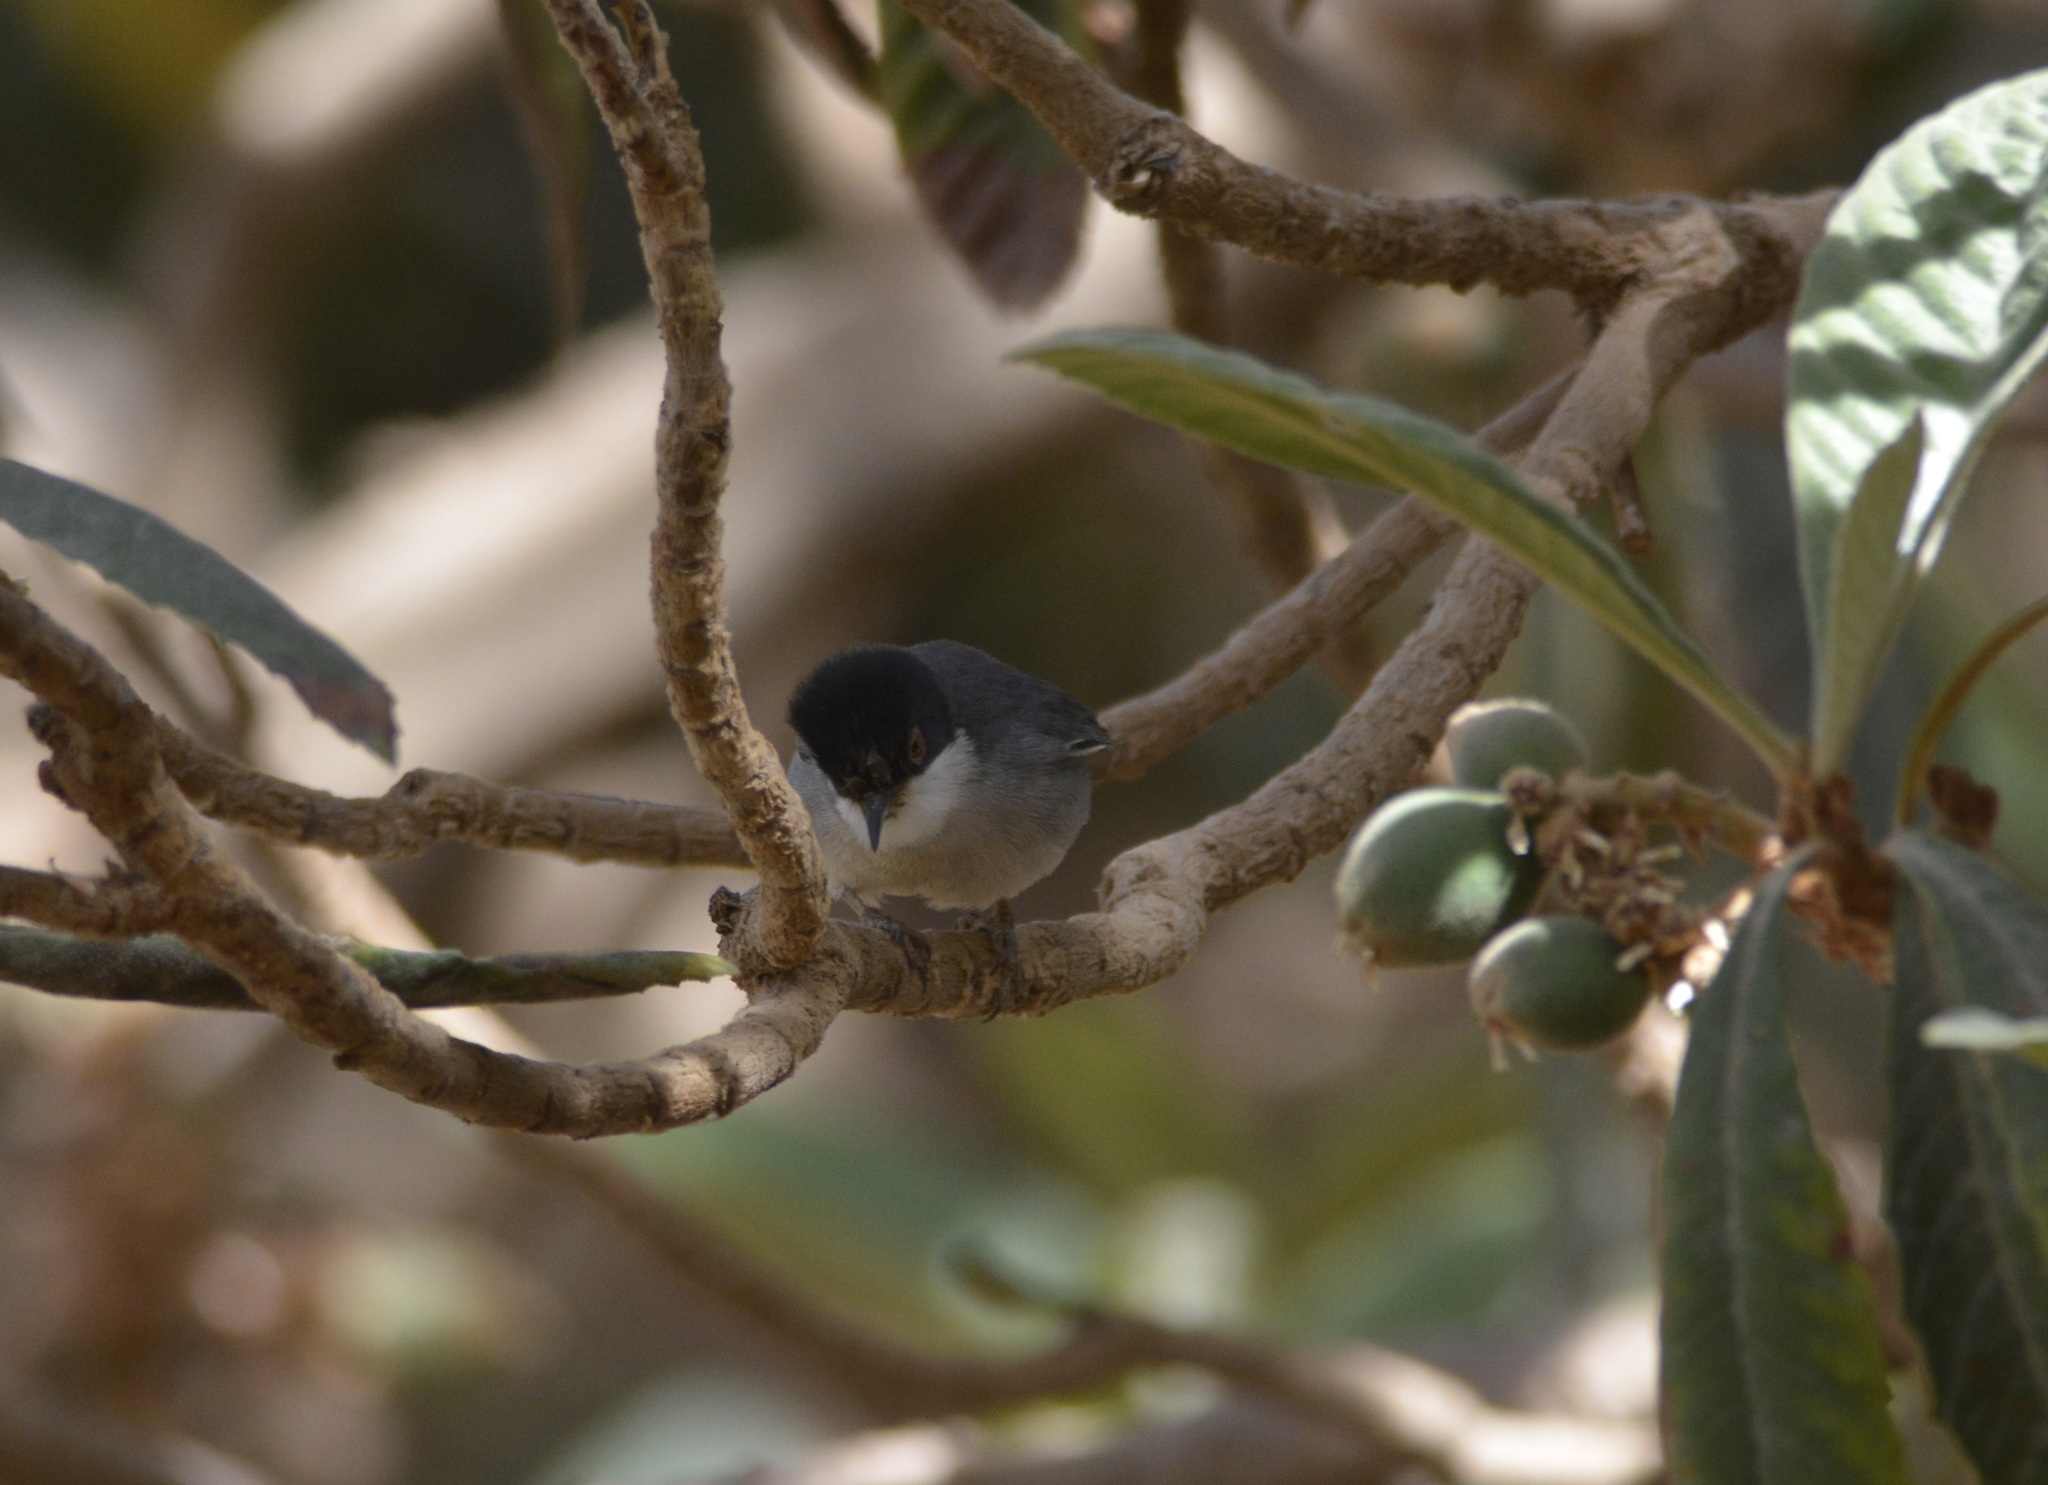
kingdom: Animalia
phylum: Chordata
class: Aves
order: Passeriformes
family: Sylviidae
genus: Curruca
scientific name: Curruca melanocephala
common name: Sardinian warbler
